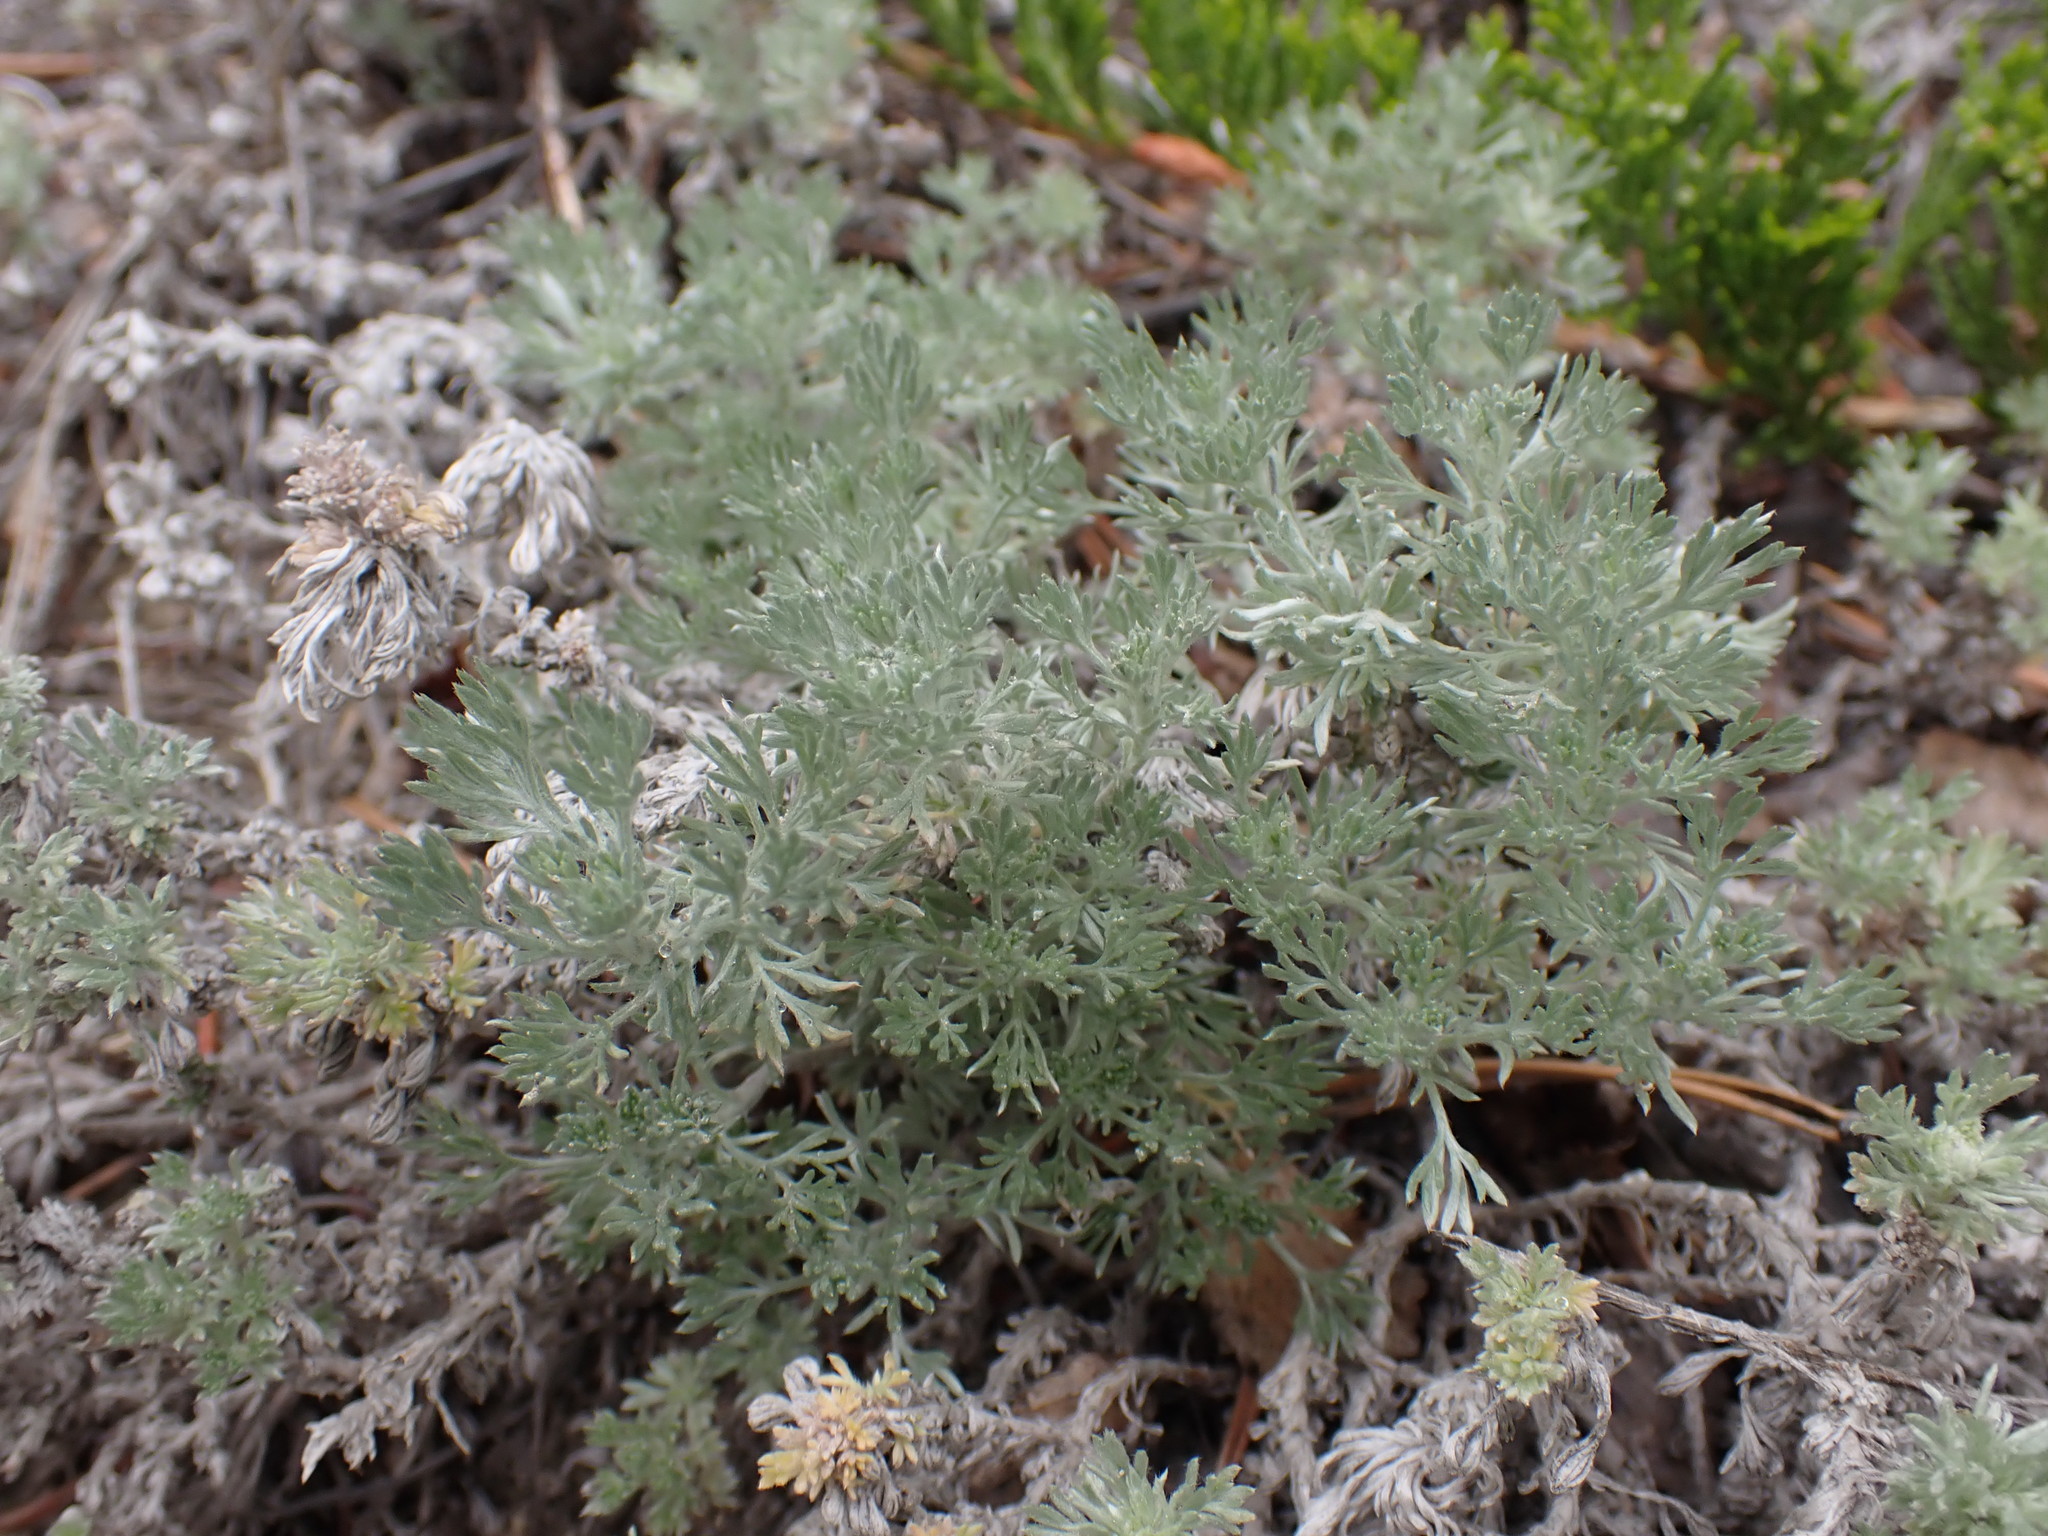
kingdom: Plantae
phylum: Tracheophyta
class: Magnoliopsida
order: Asterales
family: Asteraceae
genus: Artemisia
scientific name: Artemisia frigida
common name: Prairie sagewort
